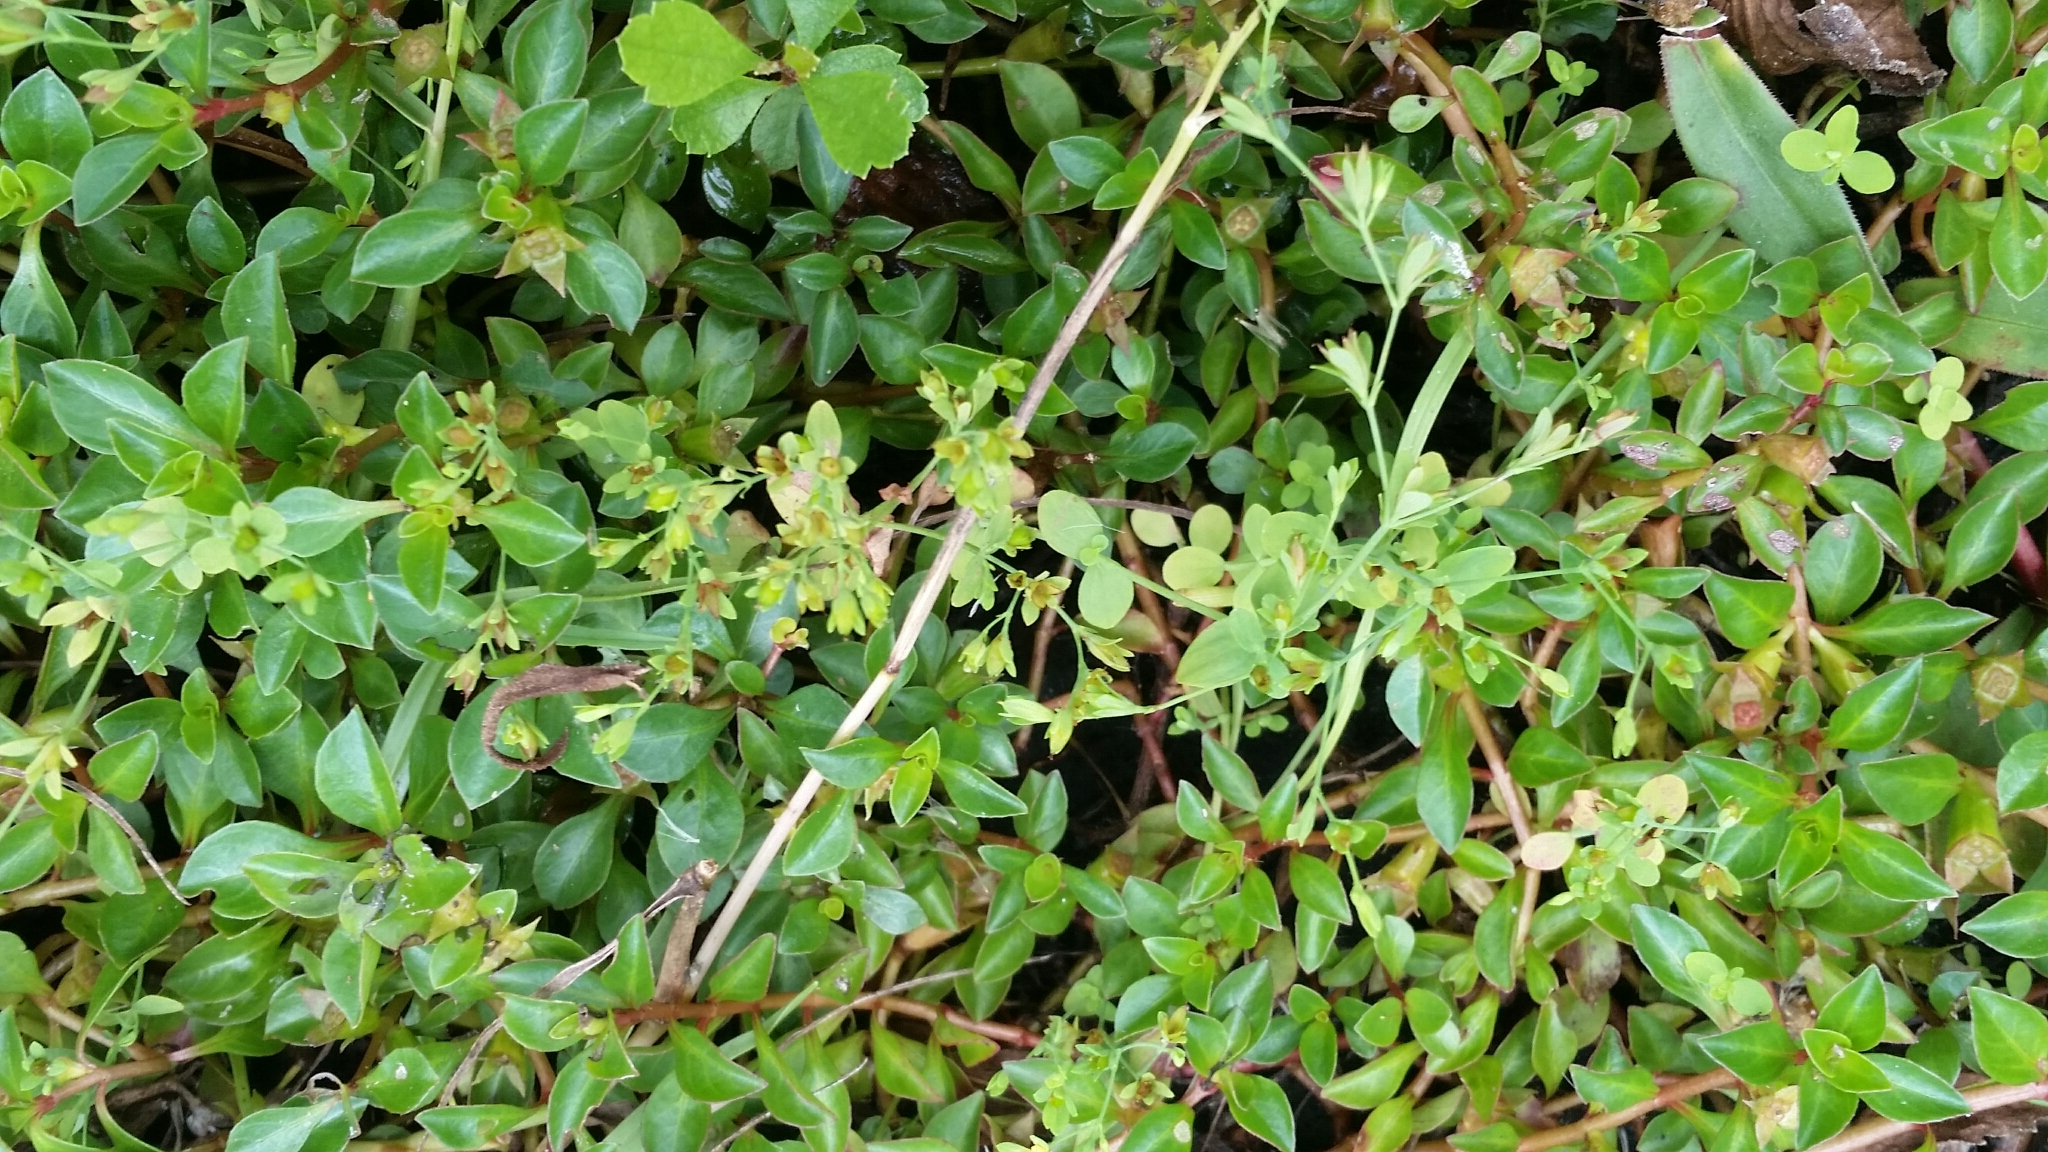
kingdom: Plantae
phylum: Tracheophyta
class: Magnoliopsida
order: Malpighiales
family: Hypericaceae
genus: Hypericum
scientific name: Hypericum mutilum
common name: Dwarf st. john's-wort
